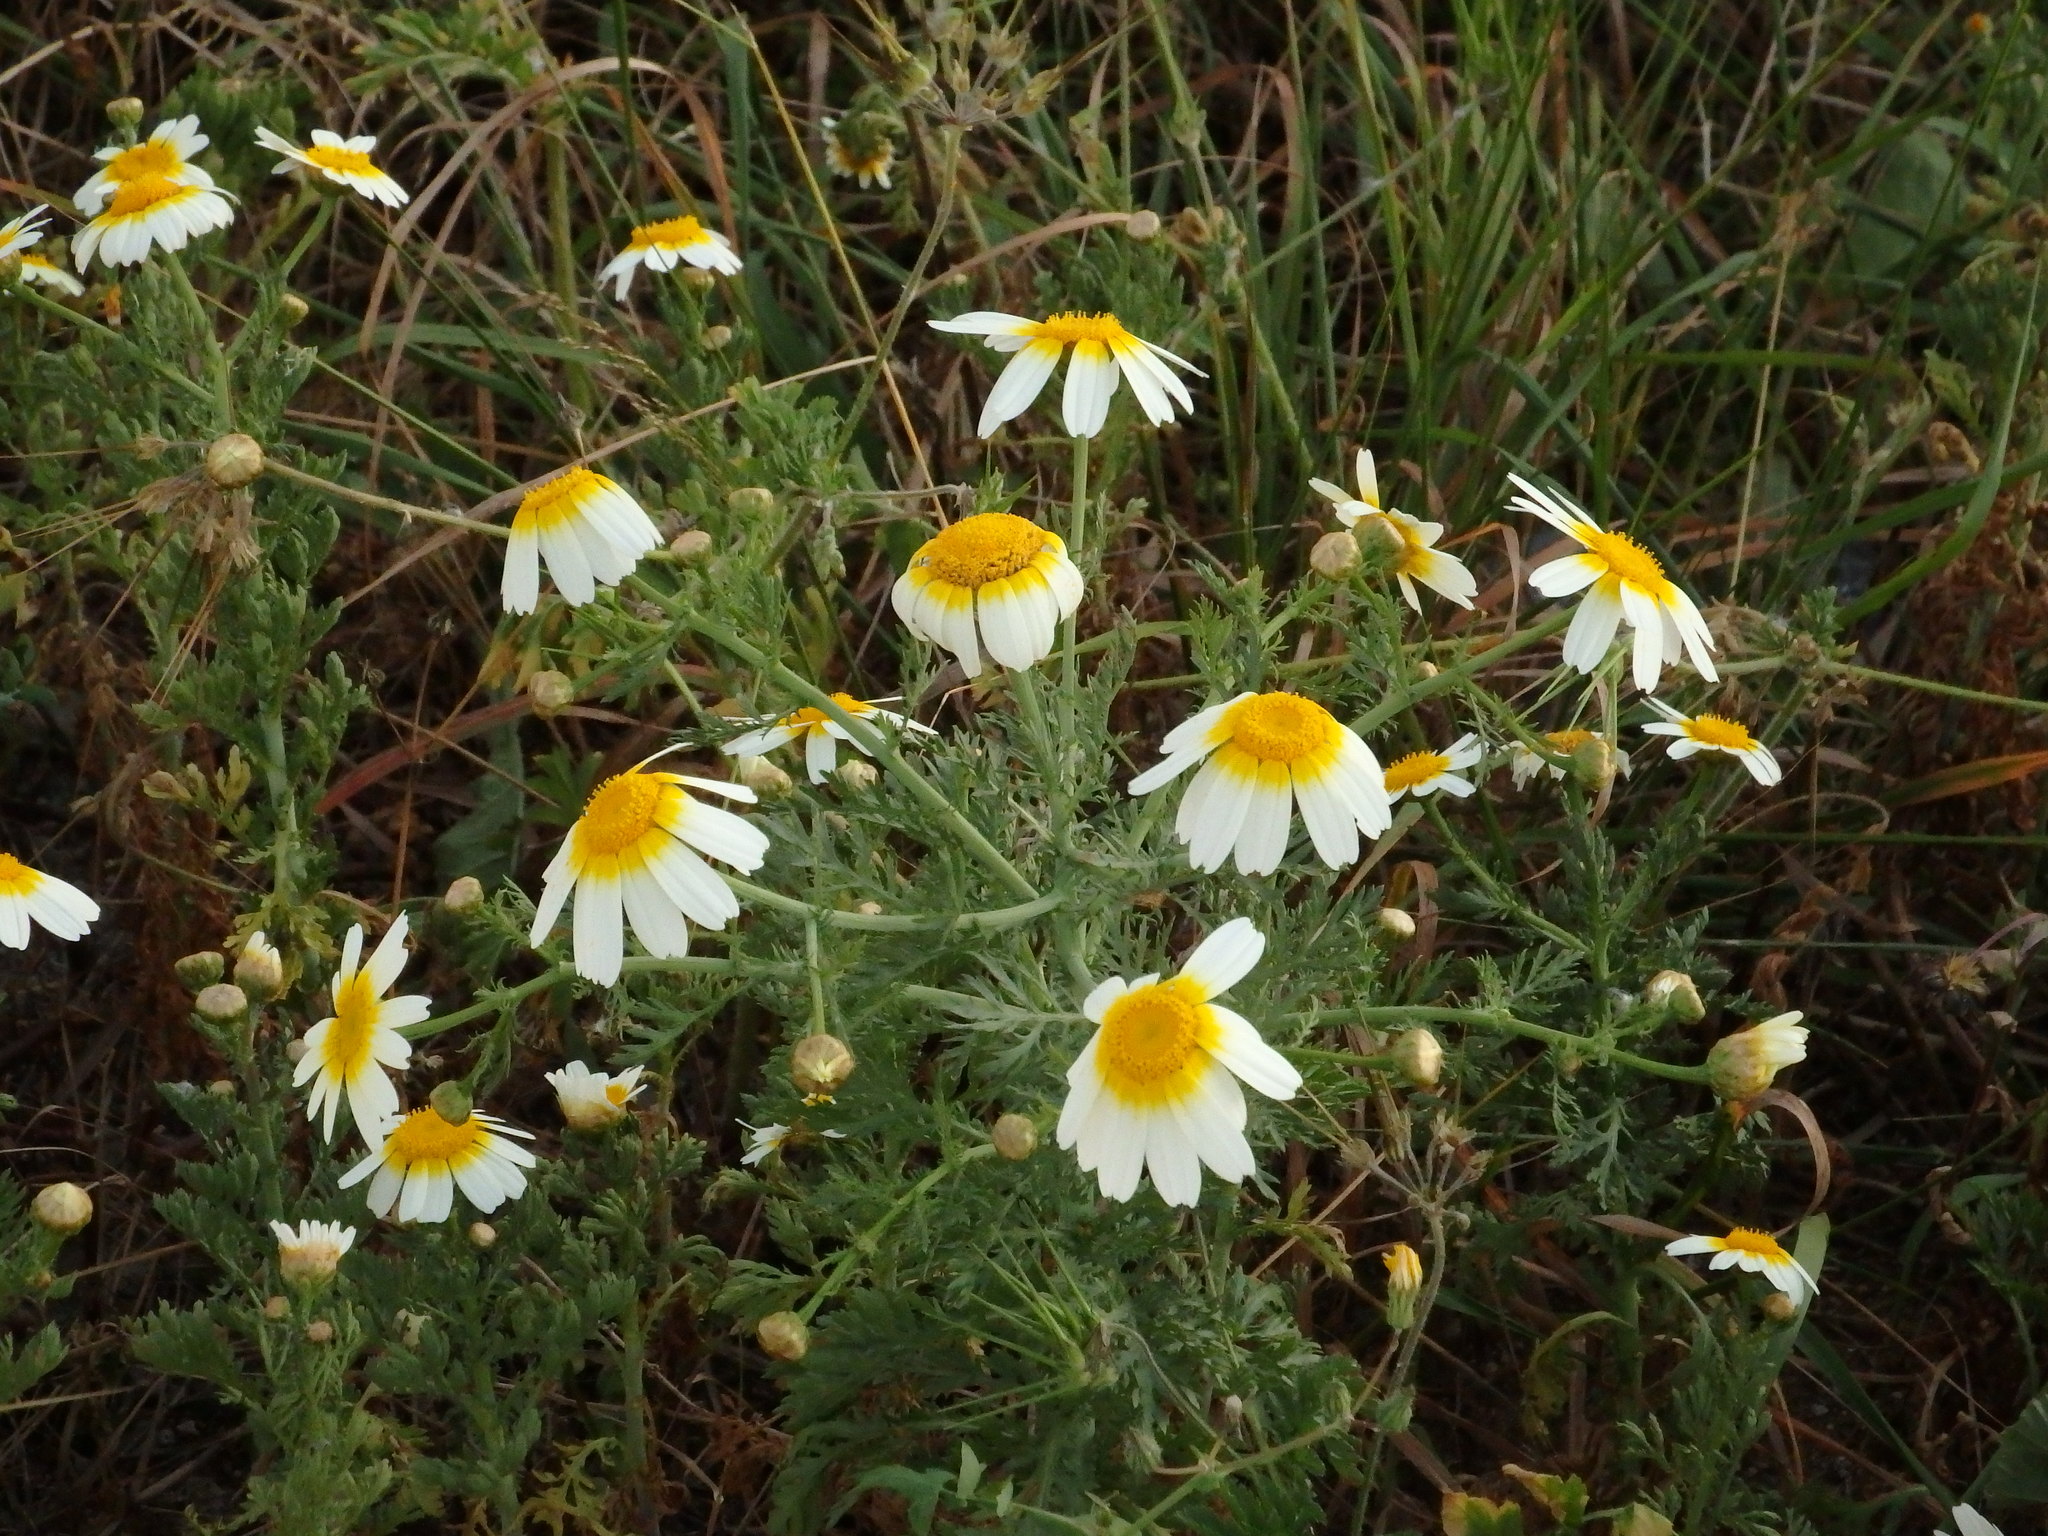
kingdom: Plantae
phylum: Tracheophyta
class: Magnoliopsida
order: Asterales
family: Asteraceae
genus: Glebionis
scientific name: Glebionis coronaria
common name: Crowndaisy
